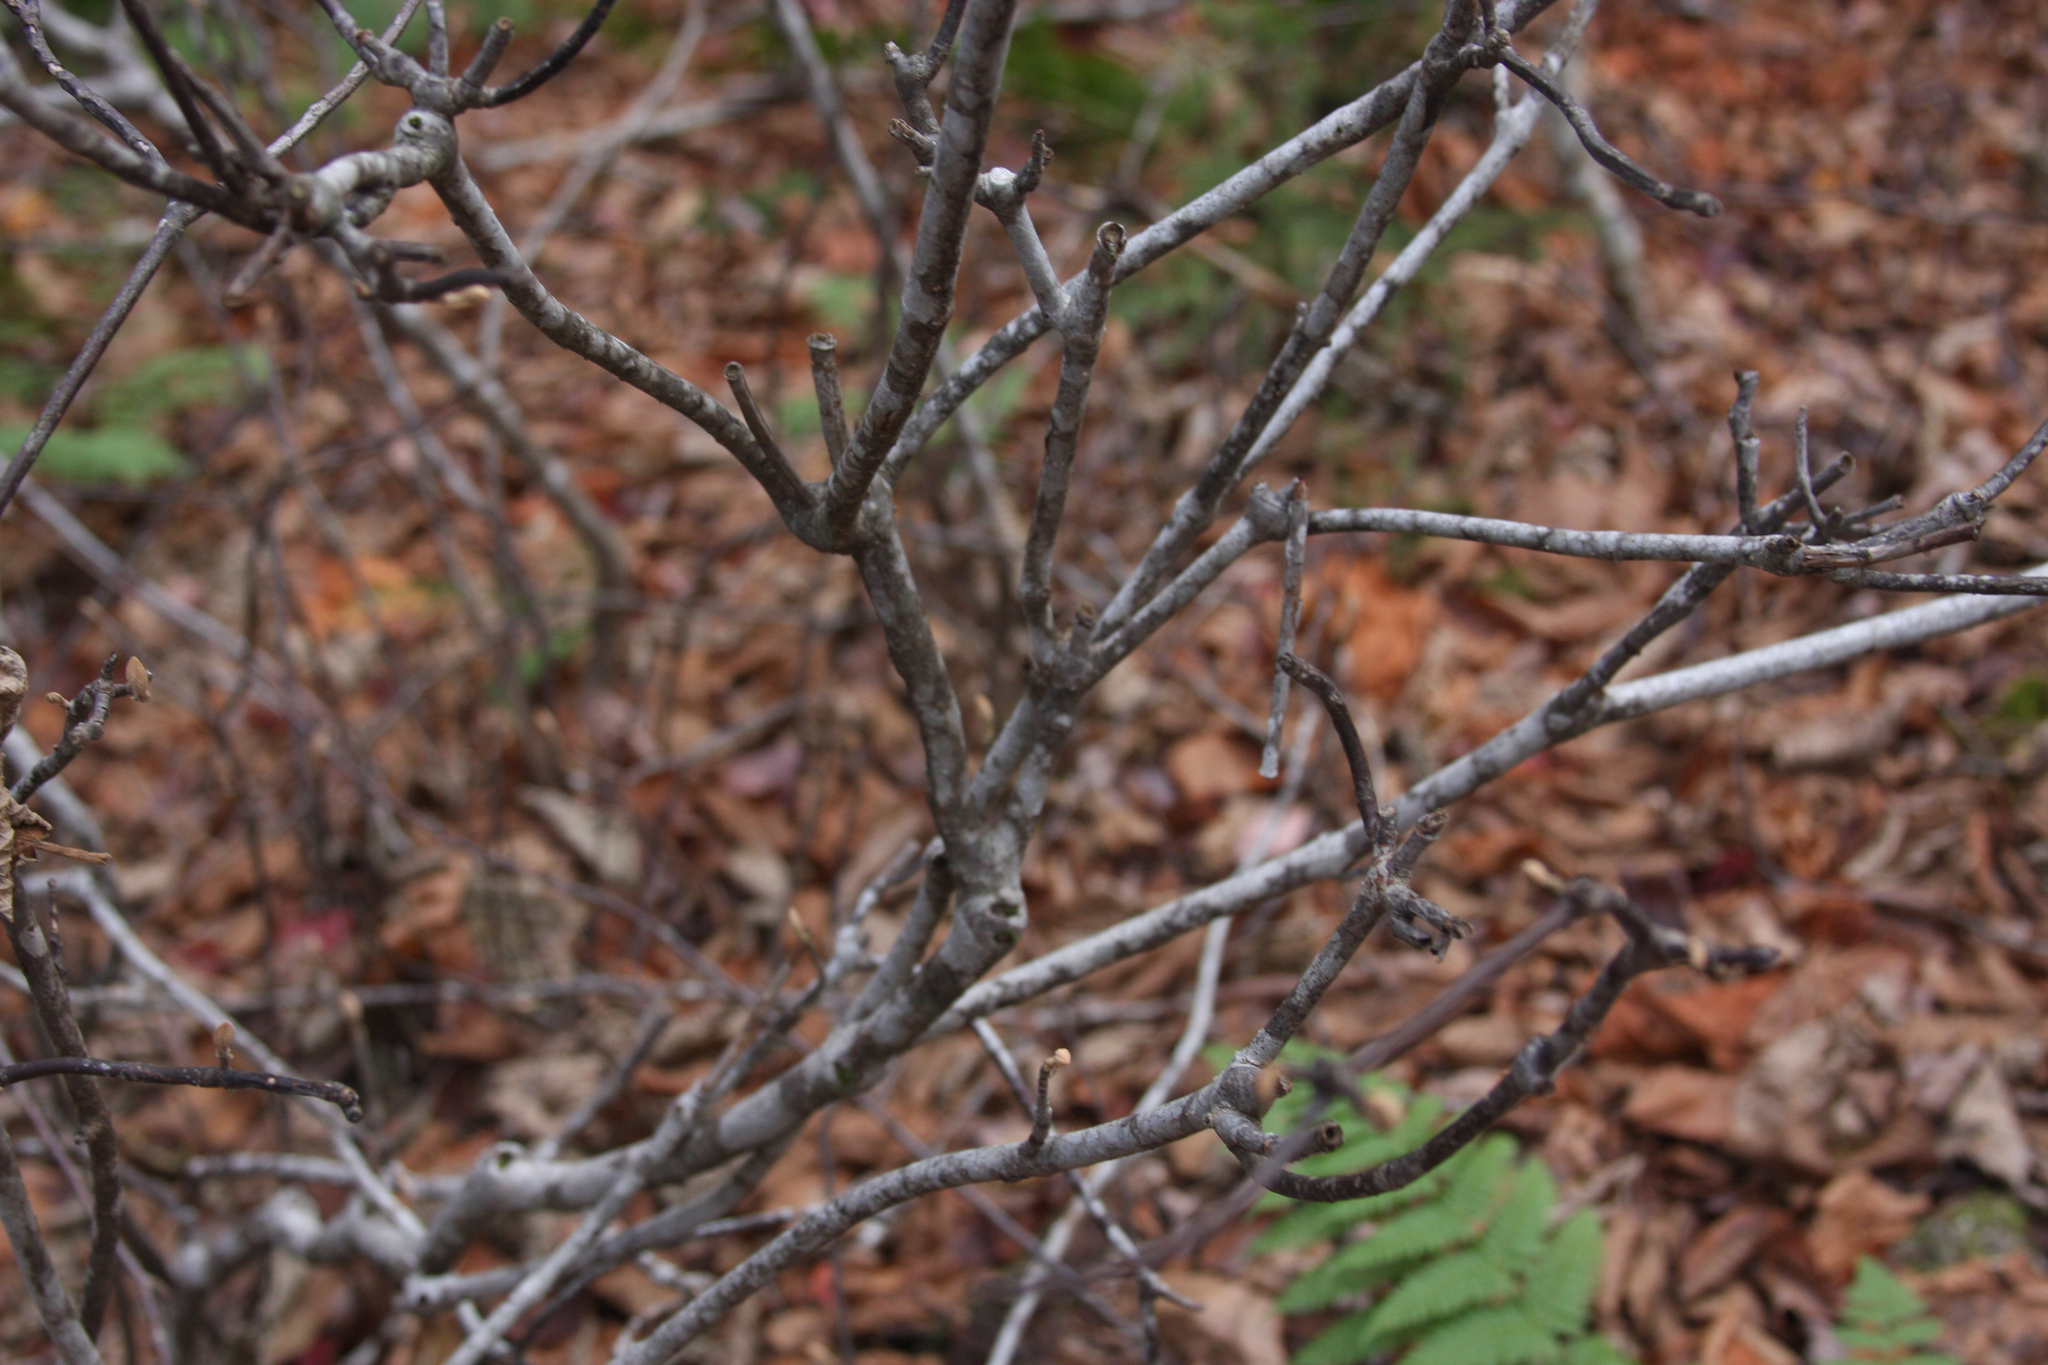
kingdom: Plantae
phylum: Tracheophyta
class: Magnoliopsida
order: Dipsacales
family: Viburnaceae
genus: Viburnum
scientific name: Viburnum lantanoides
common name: Hobblebush
